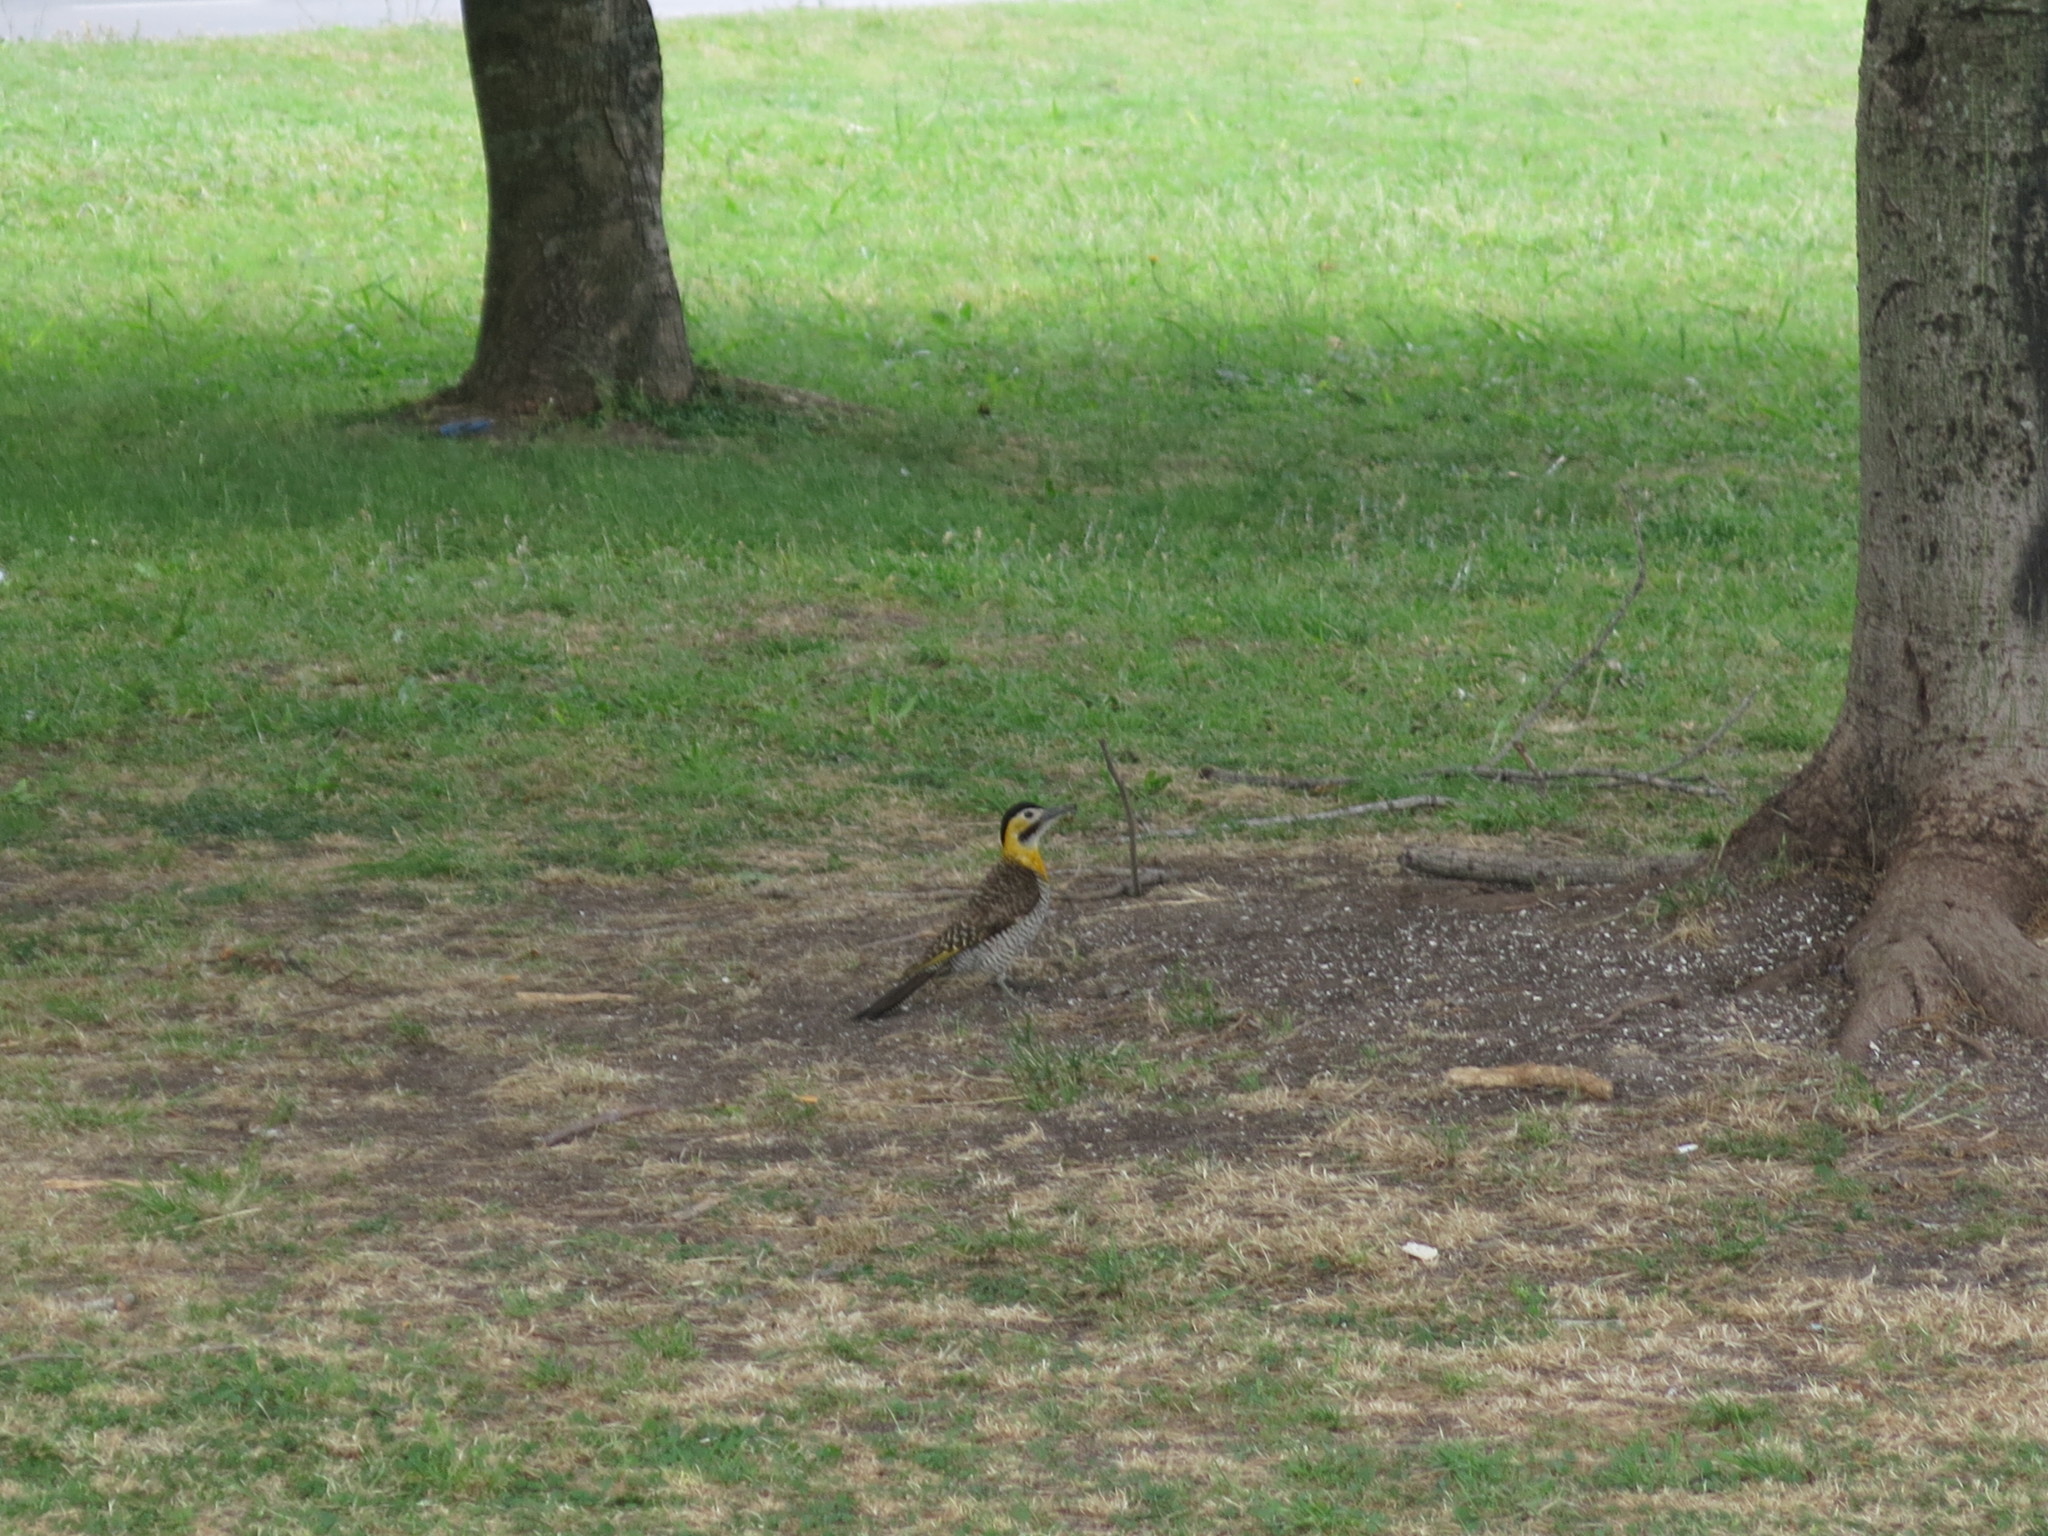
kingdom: Animalia
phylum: Chordata
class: Aves
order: Piciformes
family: Picidae
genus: Colaptes
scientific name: Colaptes campestris
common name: Campo flicker
